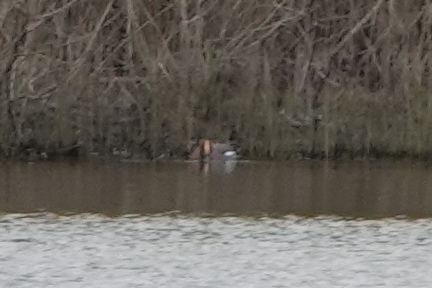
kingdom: Animalia
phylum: Chordata
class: Aves
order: Anseriformes
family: Anatidae
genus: Mareca
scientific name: Mareca penelope
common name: Eurasian wigeon
